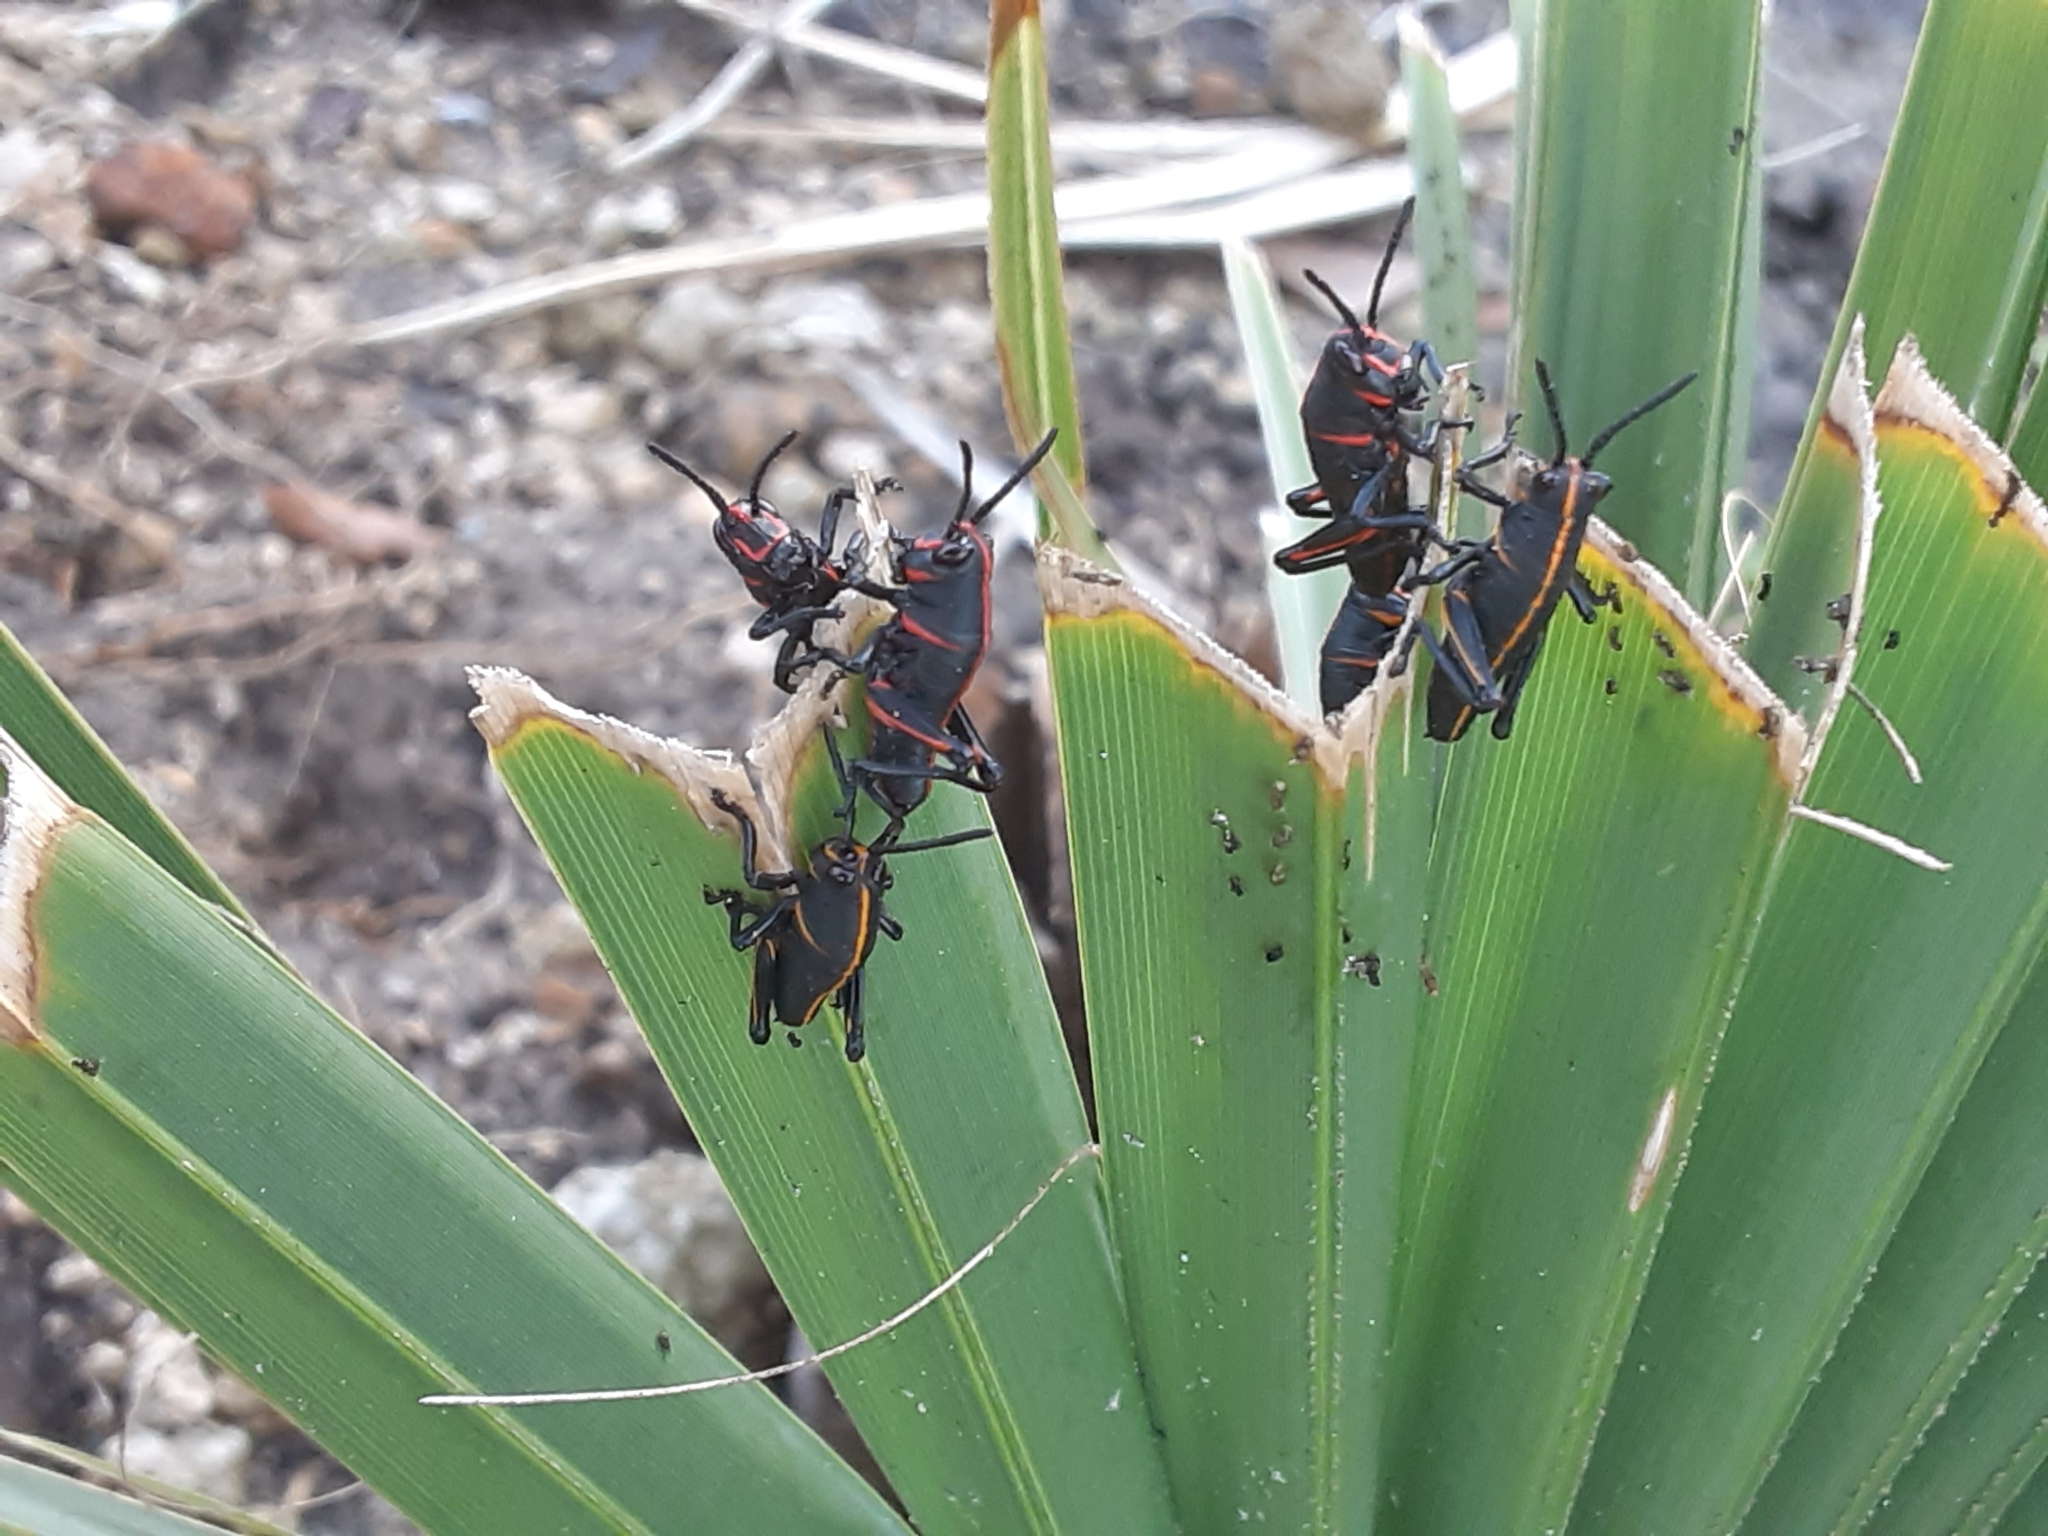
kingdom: Animalia
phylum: Arthropoda
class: Insecta
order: Orthoptera
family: Romaleidae
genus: Romalea
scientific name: Romalea microptera
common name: Eastern lubber grasshopper
